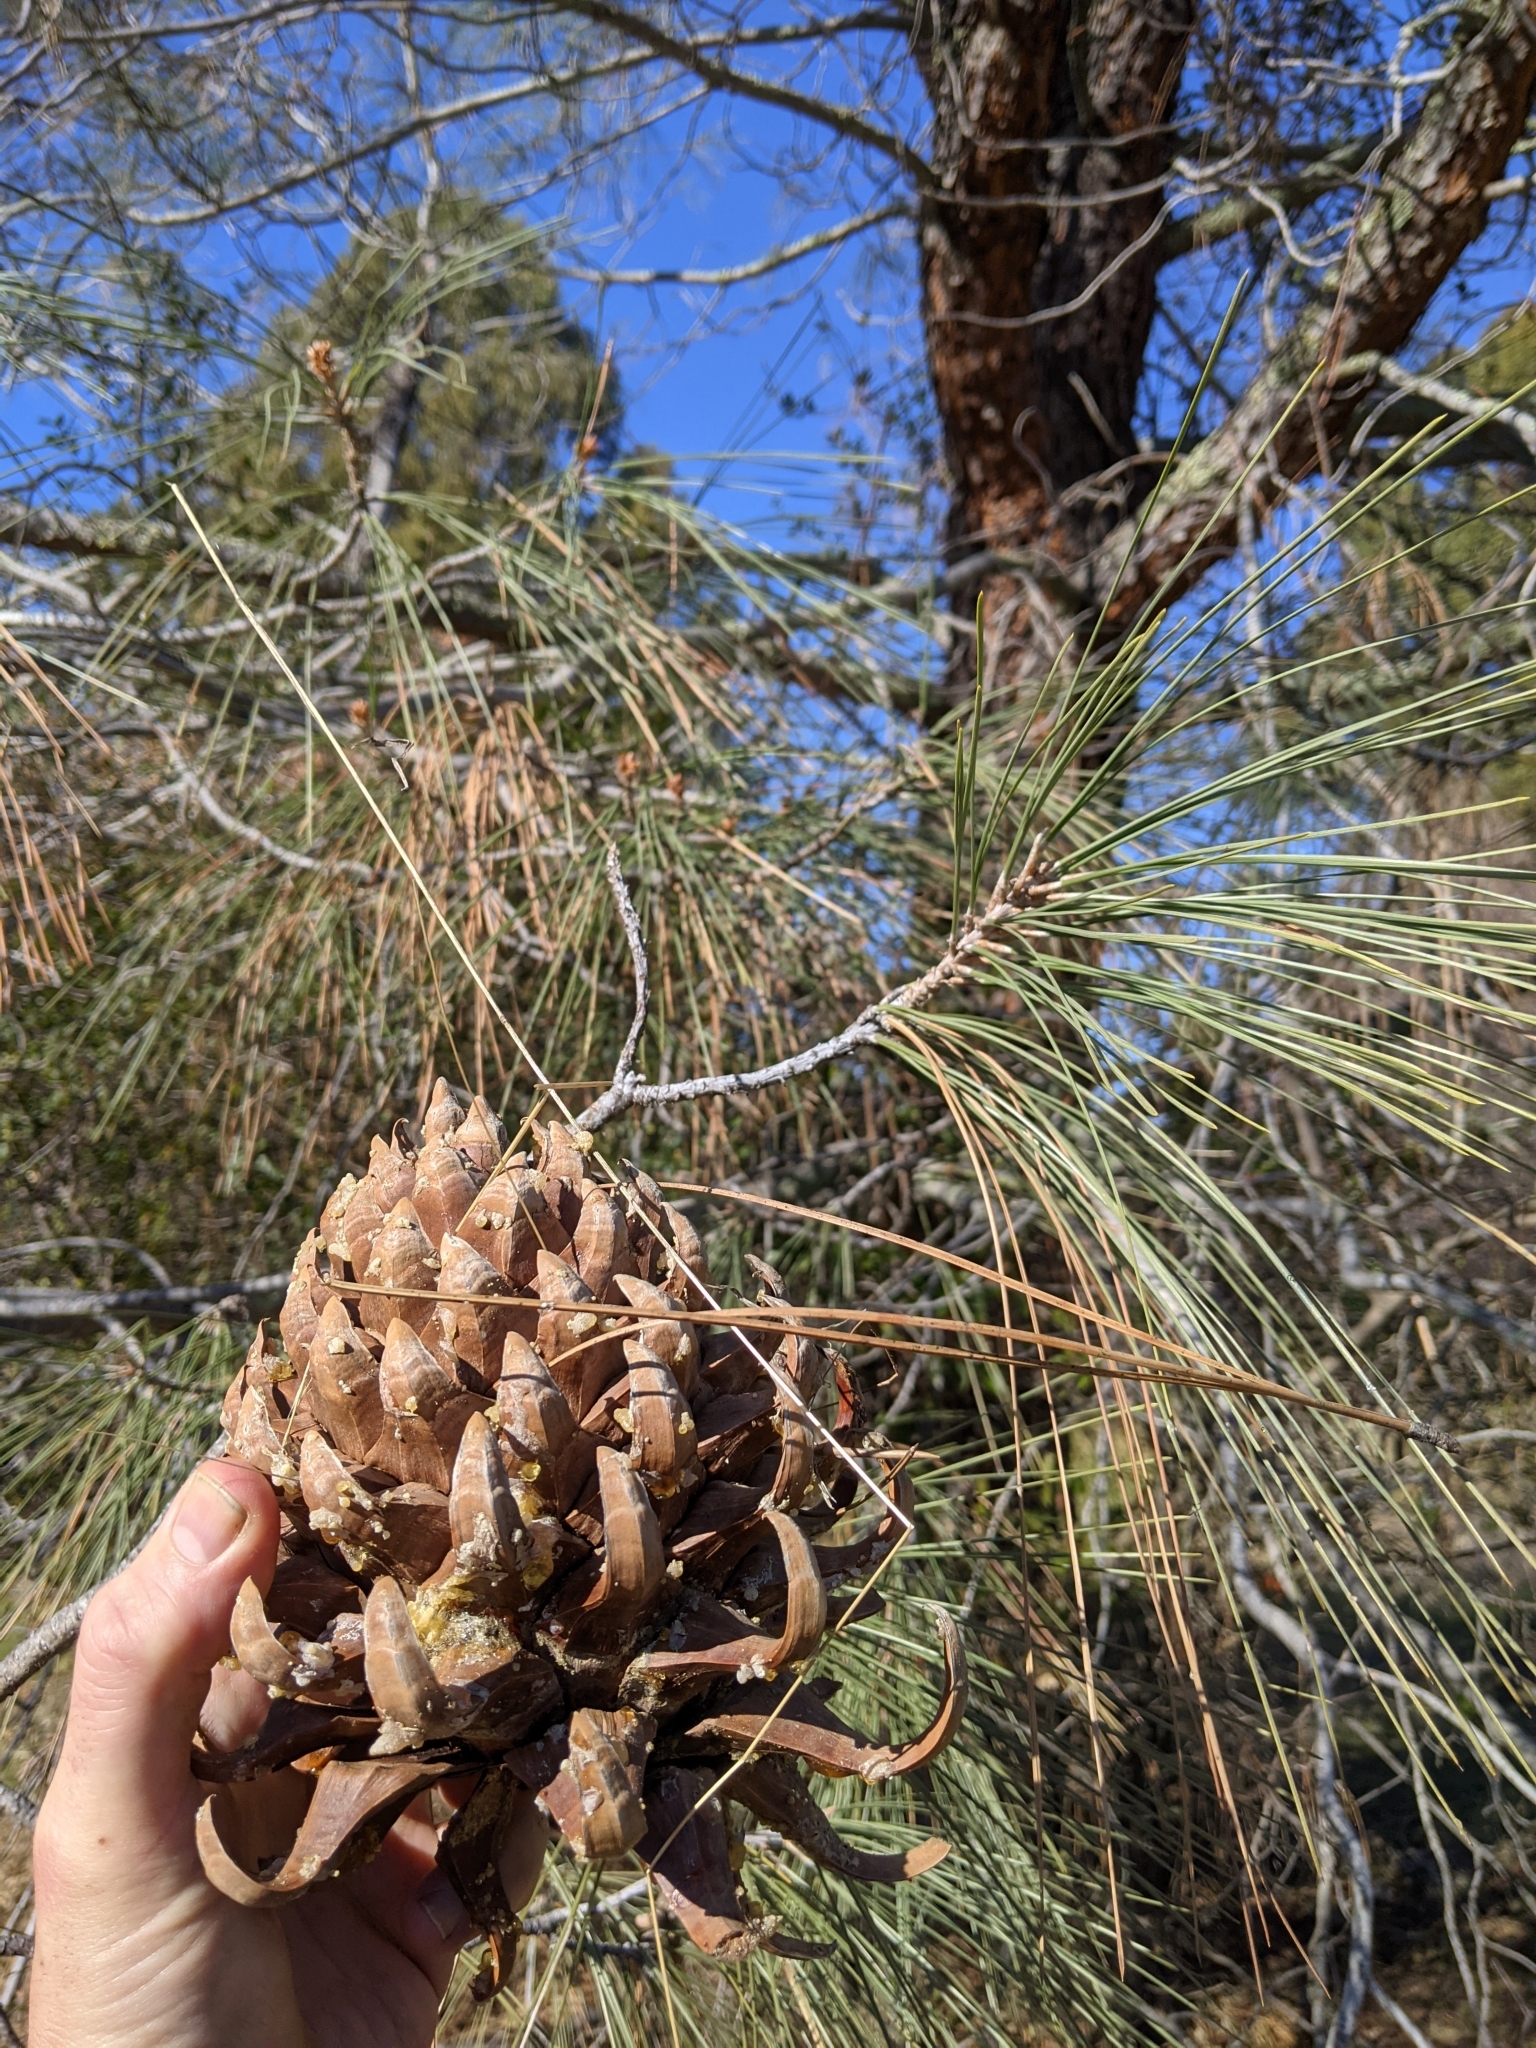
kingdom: Plantae
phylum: Tracheophyta
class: Pinopsida
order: Pinales
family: Pinaceae
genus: Pinus
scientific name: Pinus sabiniana
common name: Bull pine
